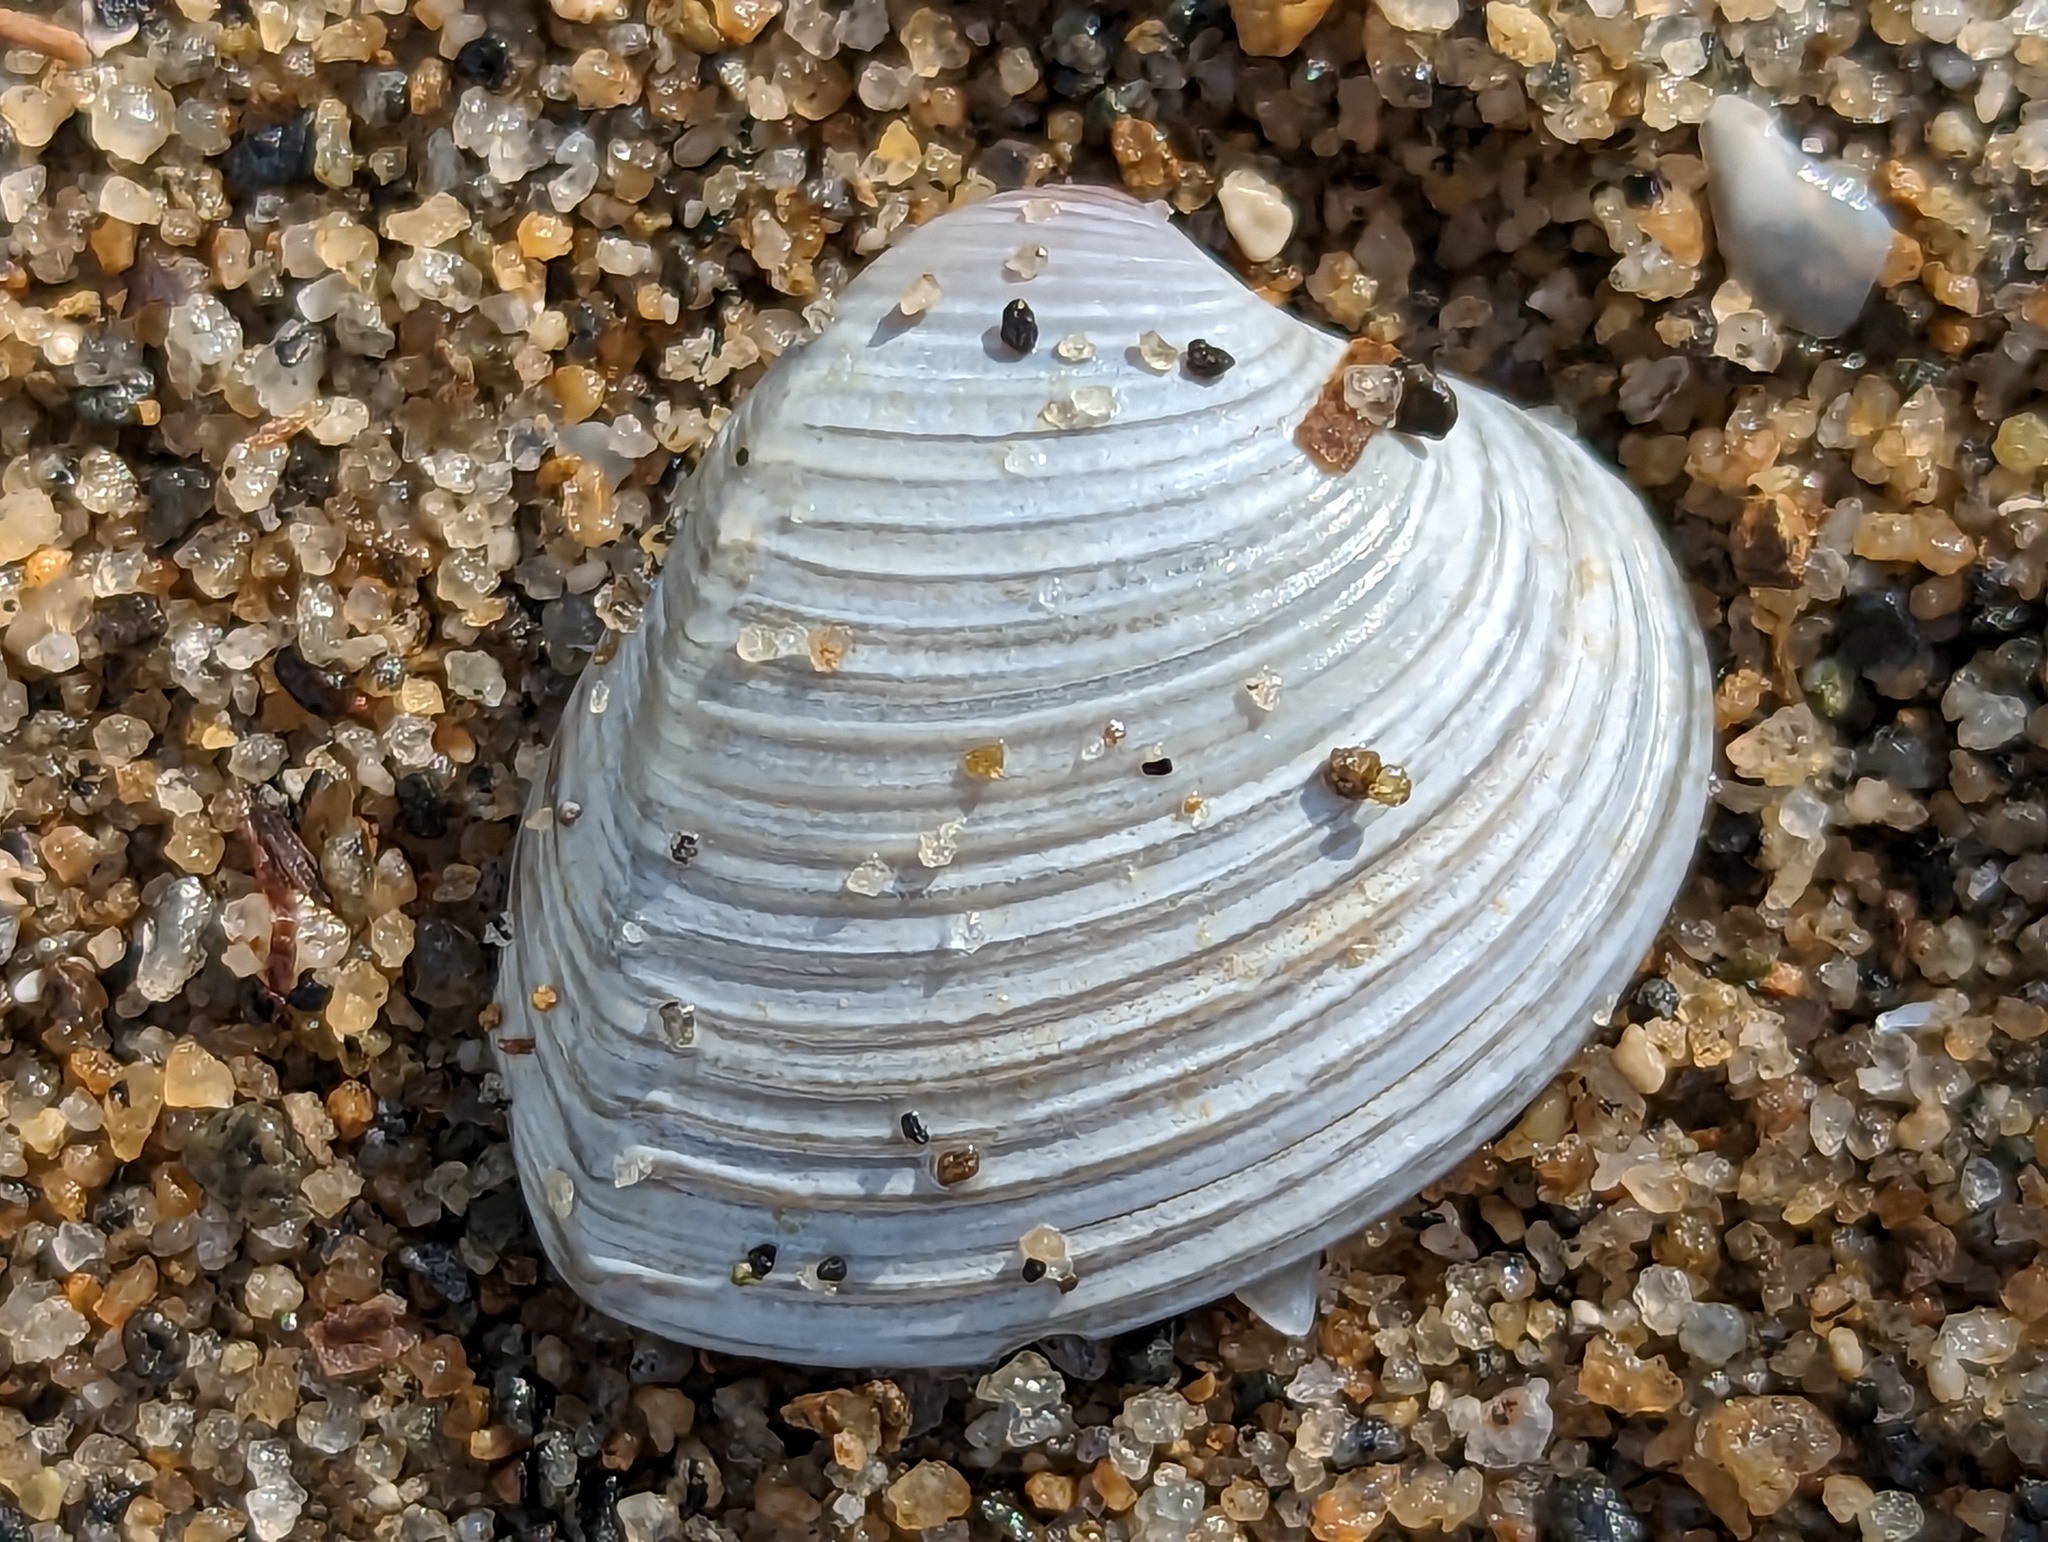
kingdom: Animalia
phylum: Mollusca
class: Bivalvia
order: Venerida
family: Veneridae
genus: Hysteroconcha
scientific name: Hysteroconcha dione
